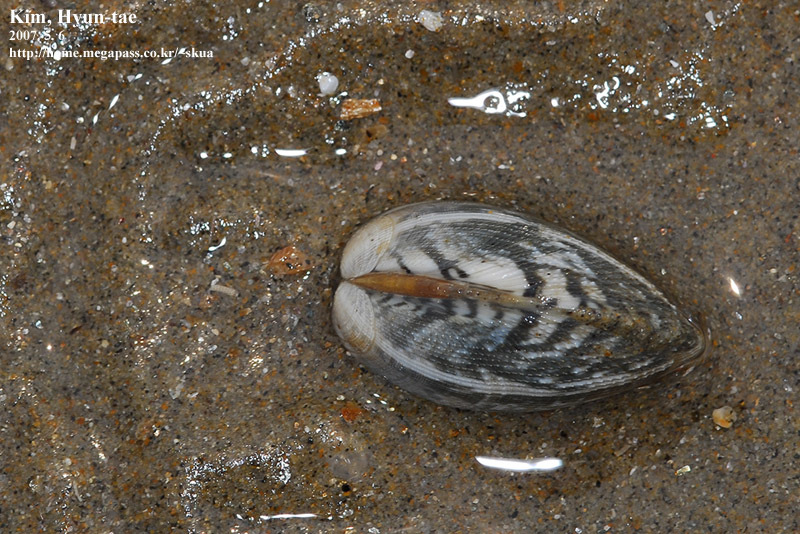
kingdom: Animalia
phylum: Mollusca
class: Bivalvia
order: Venerida
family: Veneridae
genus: Ruditapes
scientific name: Ruditapes philippinarum
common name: Manila clam
